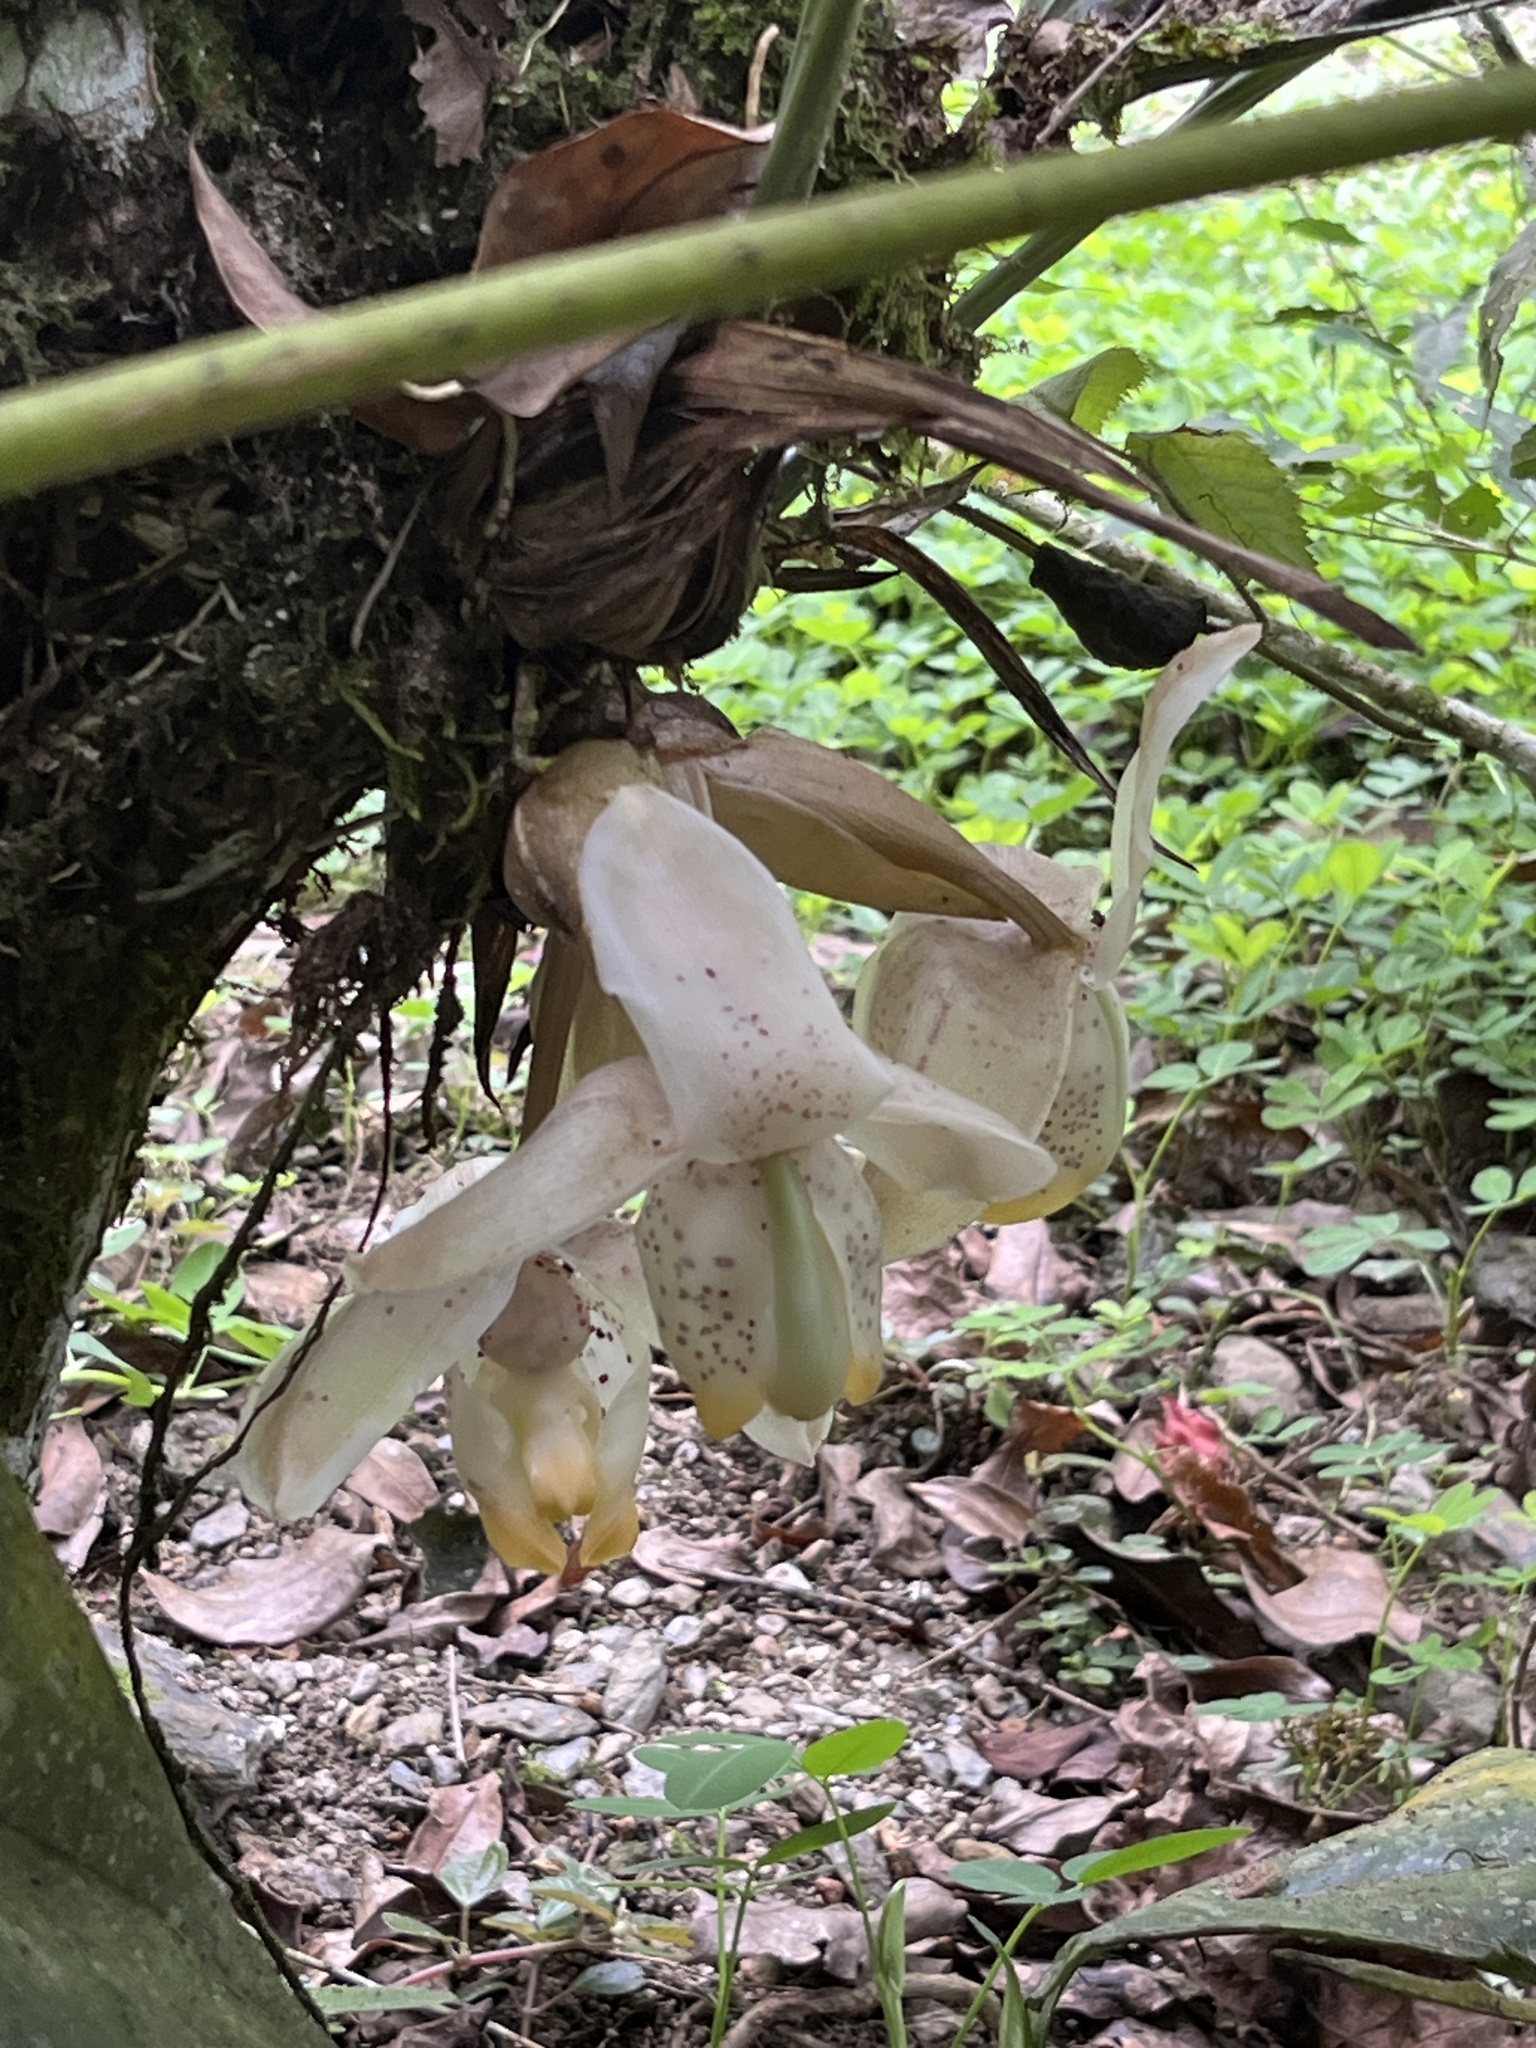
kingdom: Plantae
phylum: Tracheophyta
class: Liliopsida
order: Asparagales
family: Orchidaceae
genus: Stanhopea
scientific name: Stanhopea tricornis
